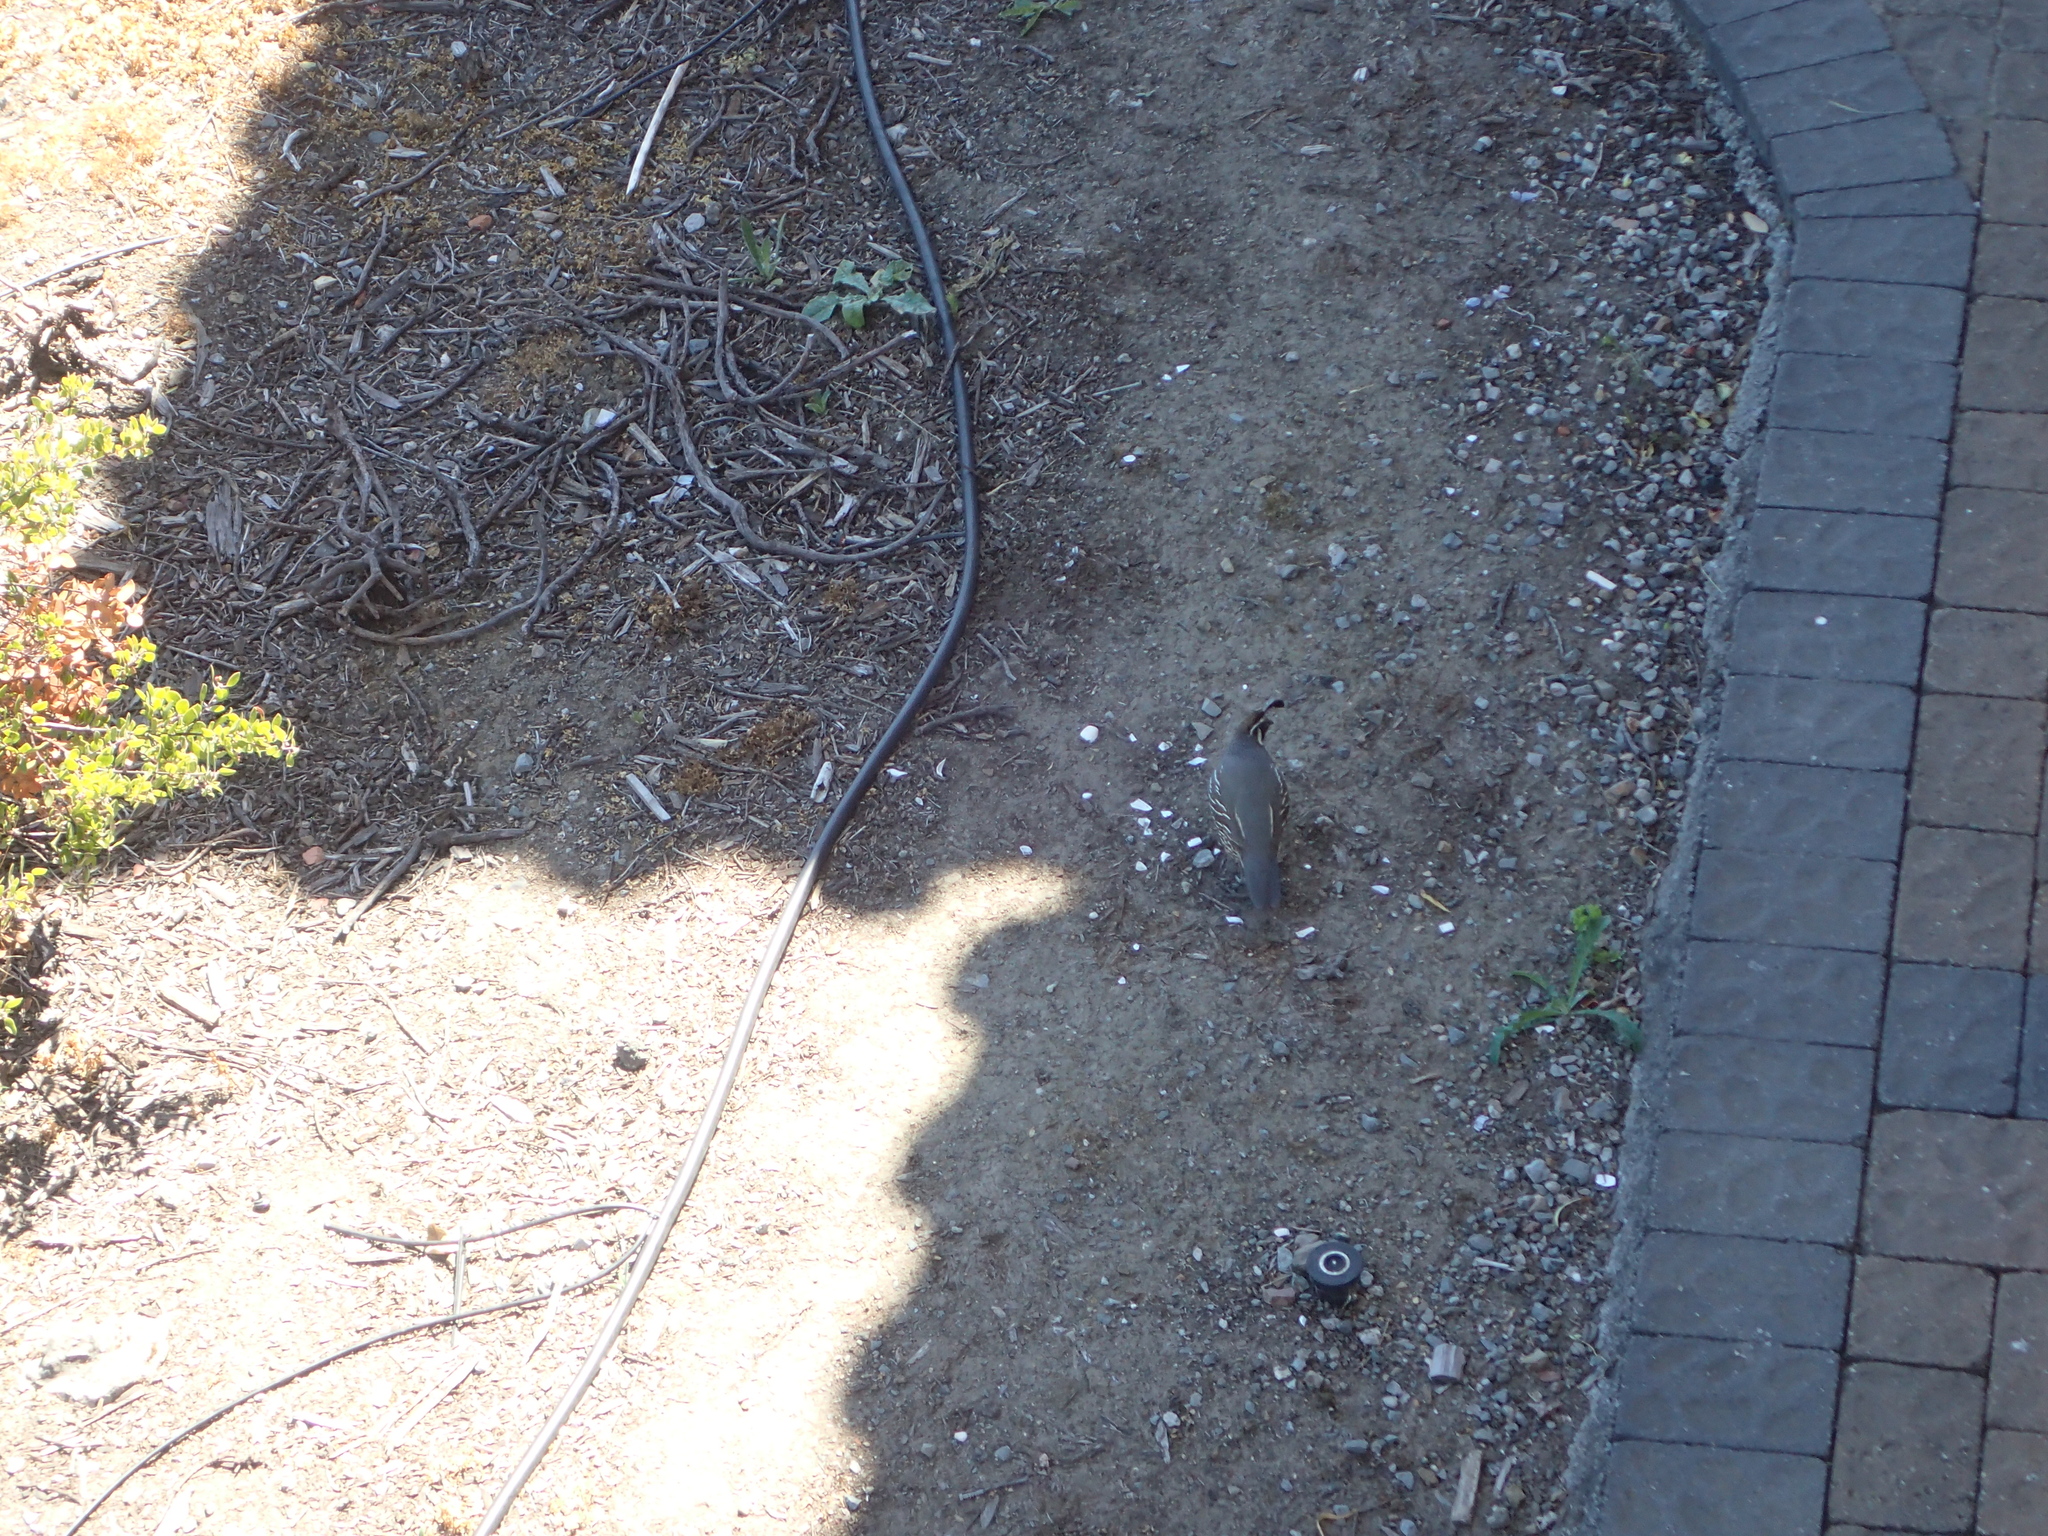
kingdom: Animalia
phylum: Chordata
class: Aves
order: Galliformes
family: Odontophoridae
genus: Callipepla
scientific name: Callipepla californica
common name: California quail
